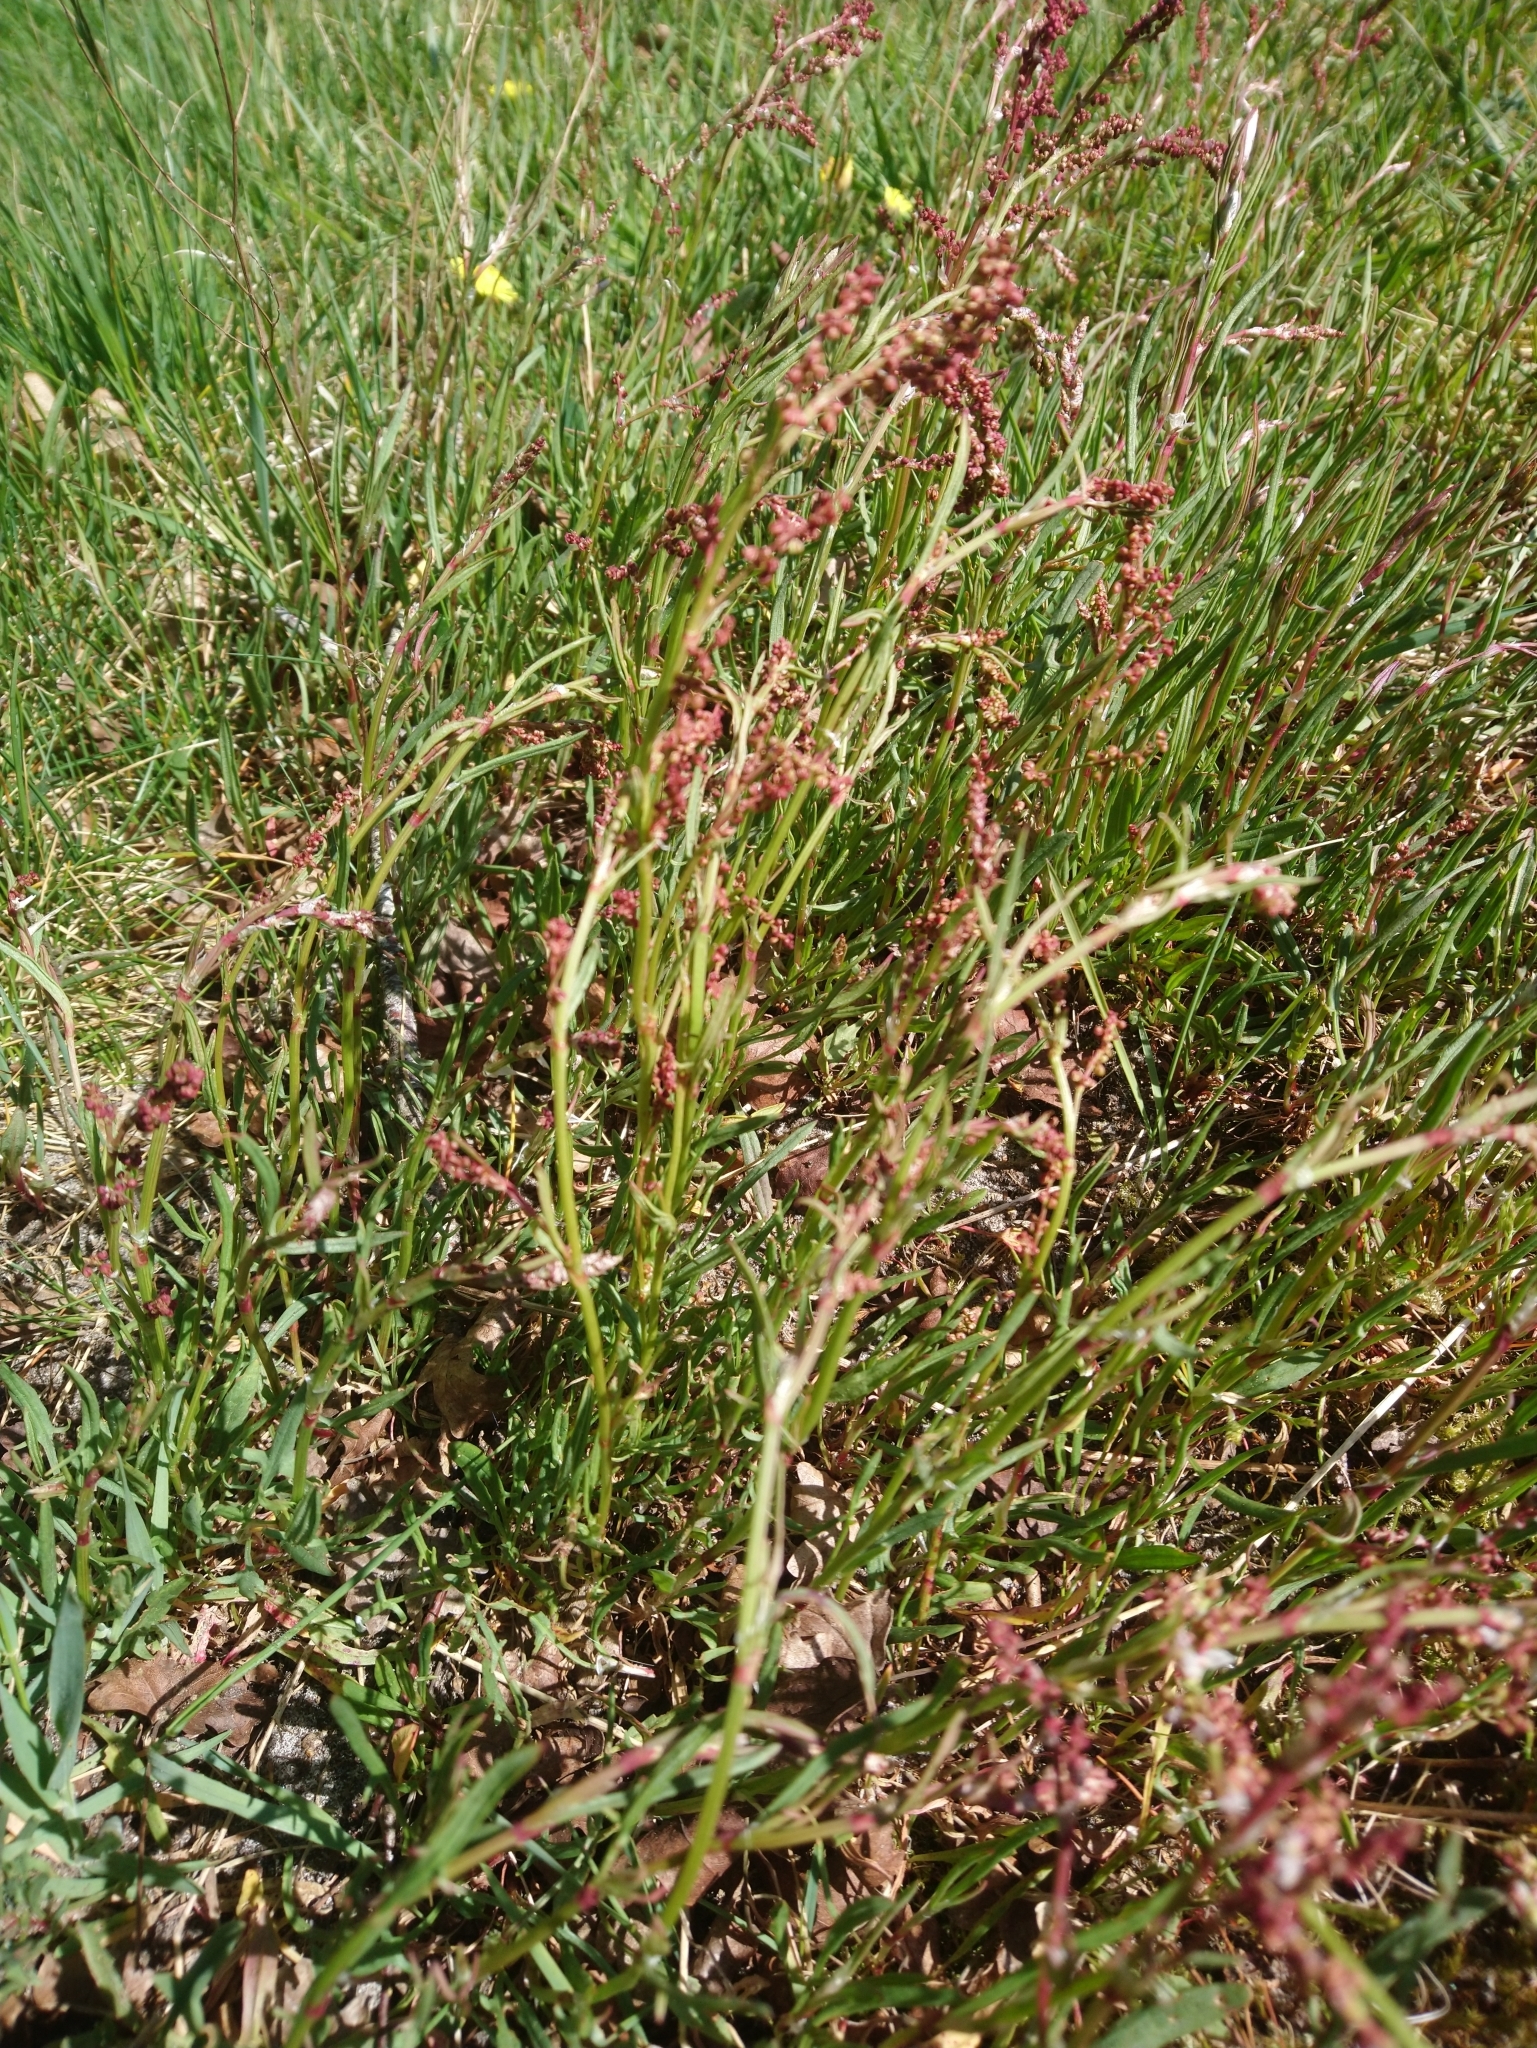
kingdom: Plantae
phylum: Tracheophyta
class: Magnoliopsida
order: Caryophyllales
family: Polygonaceae
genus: Rumex
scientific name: Rumex acetosa
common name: Garden sorrel
